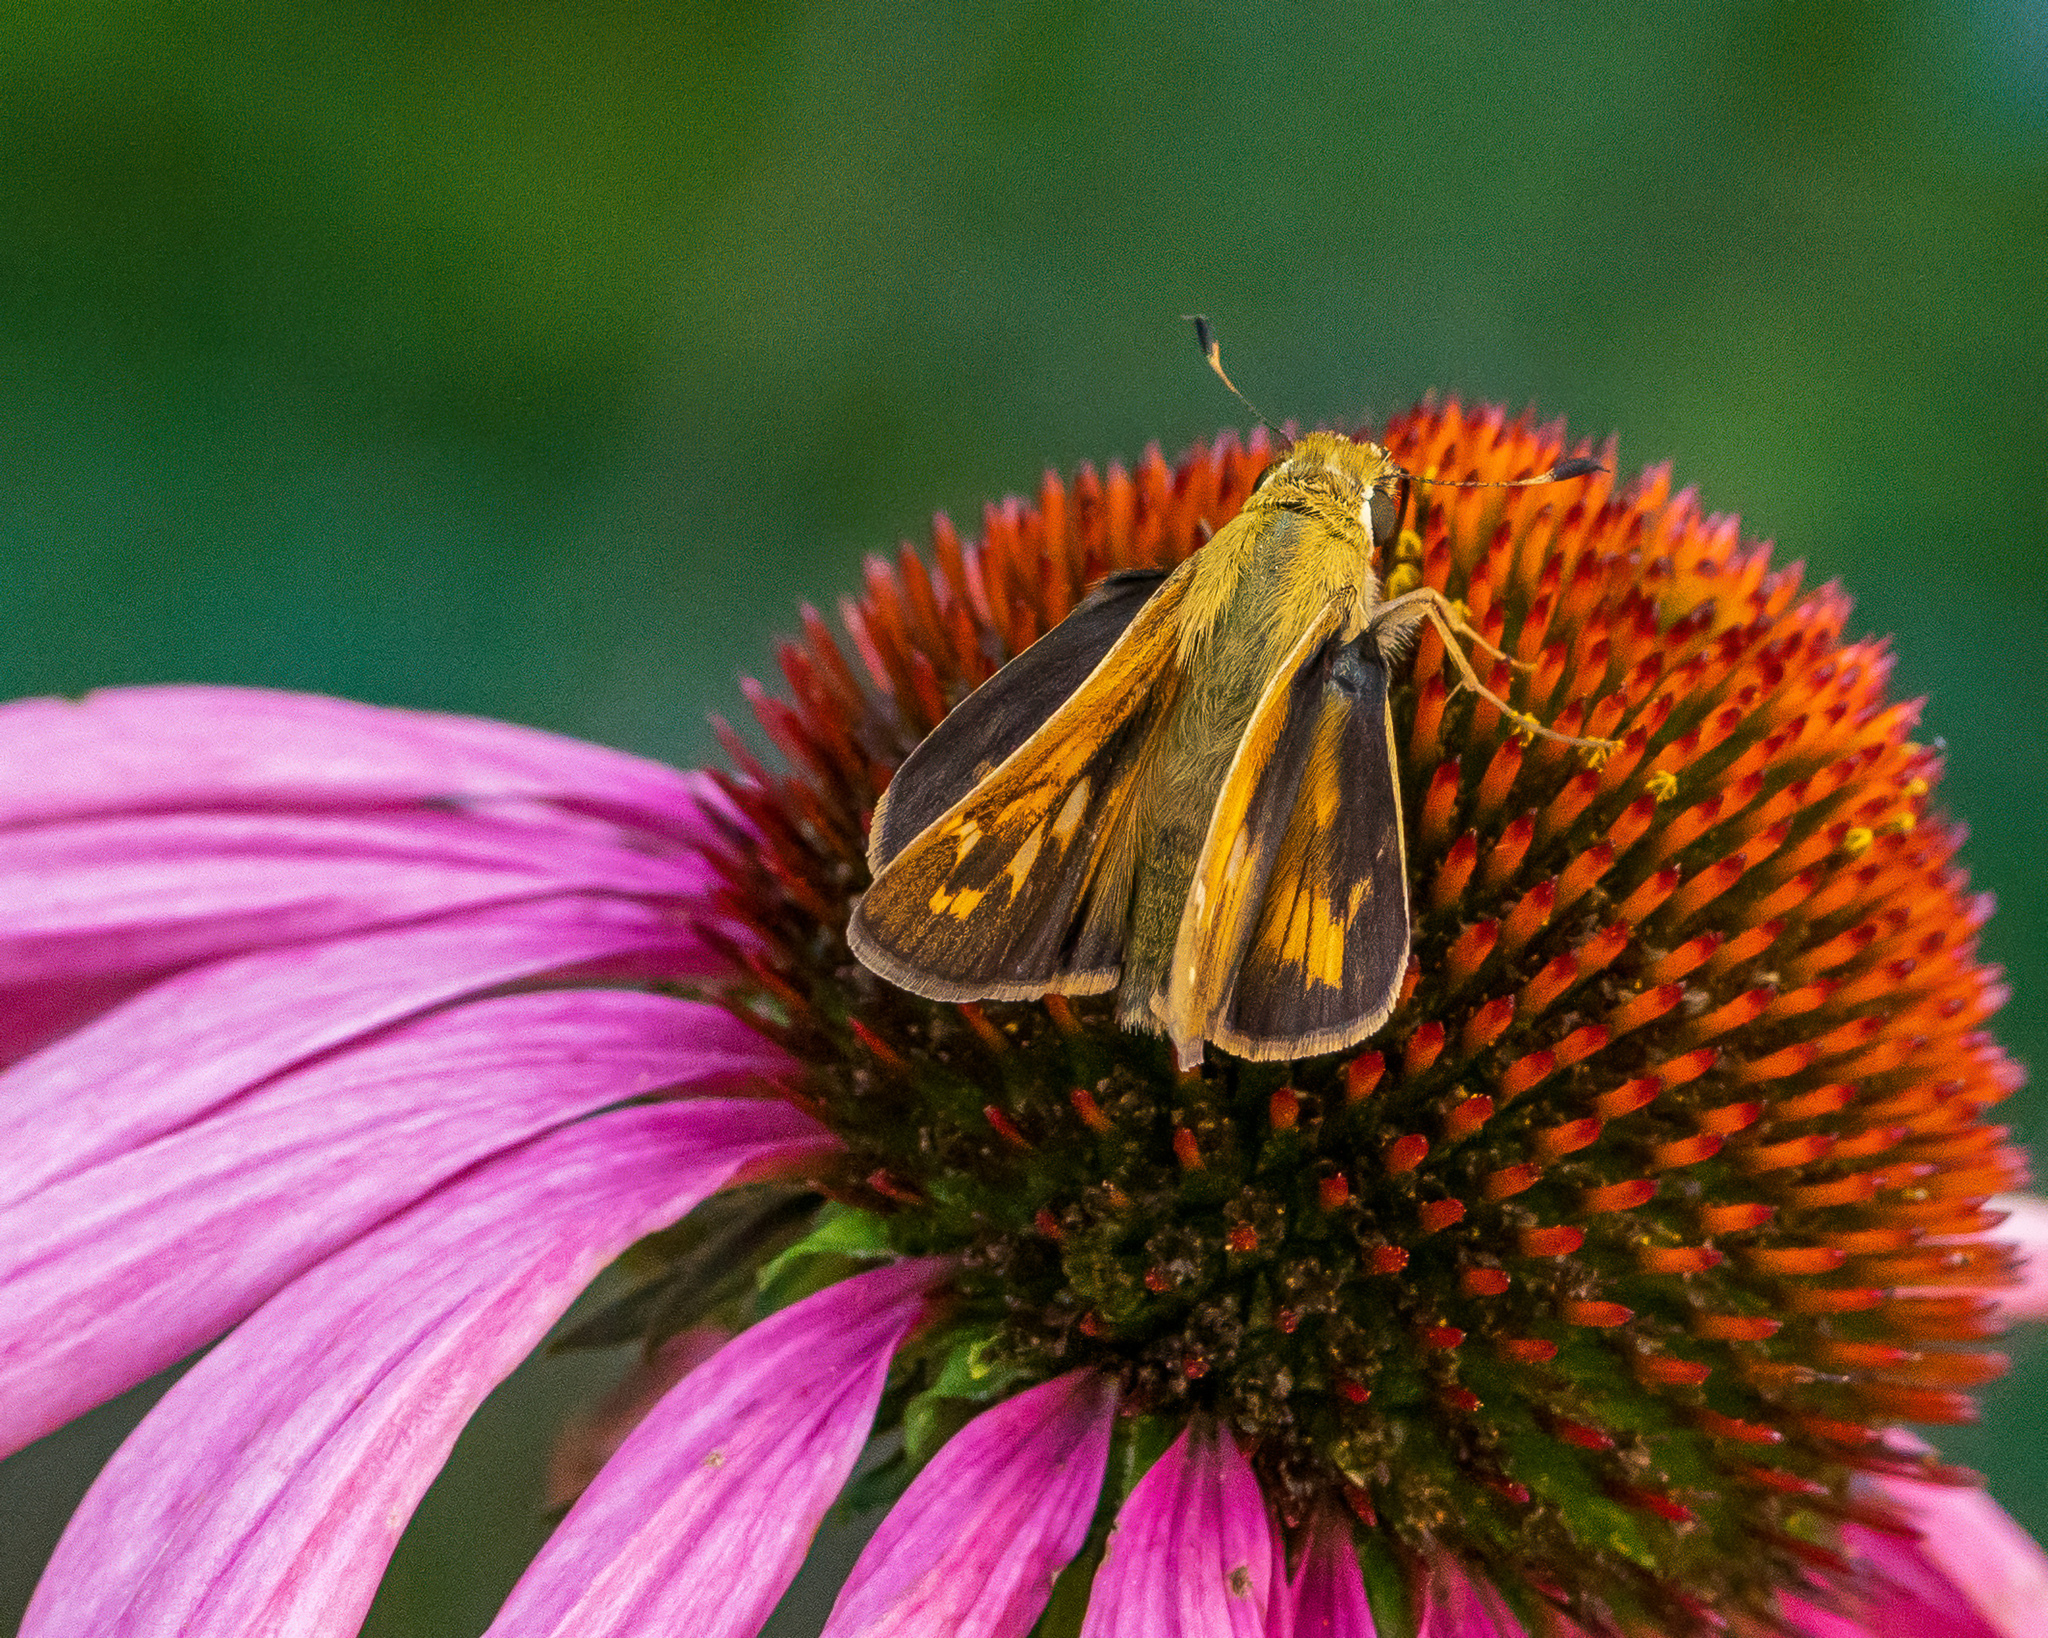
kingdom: Animalia
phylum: Arthropoda
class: Insecta
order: Lepidoptera
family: Hesperiidae
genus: Hylephila
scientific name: Hylephila phyleus
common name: Fiery skipper
